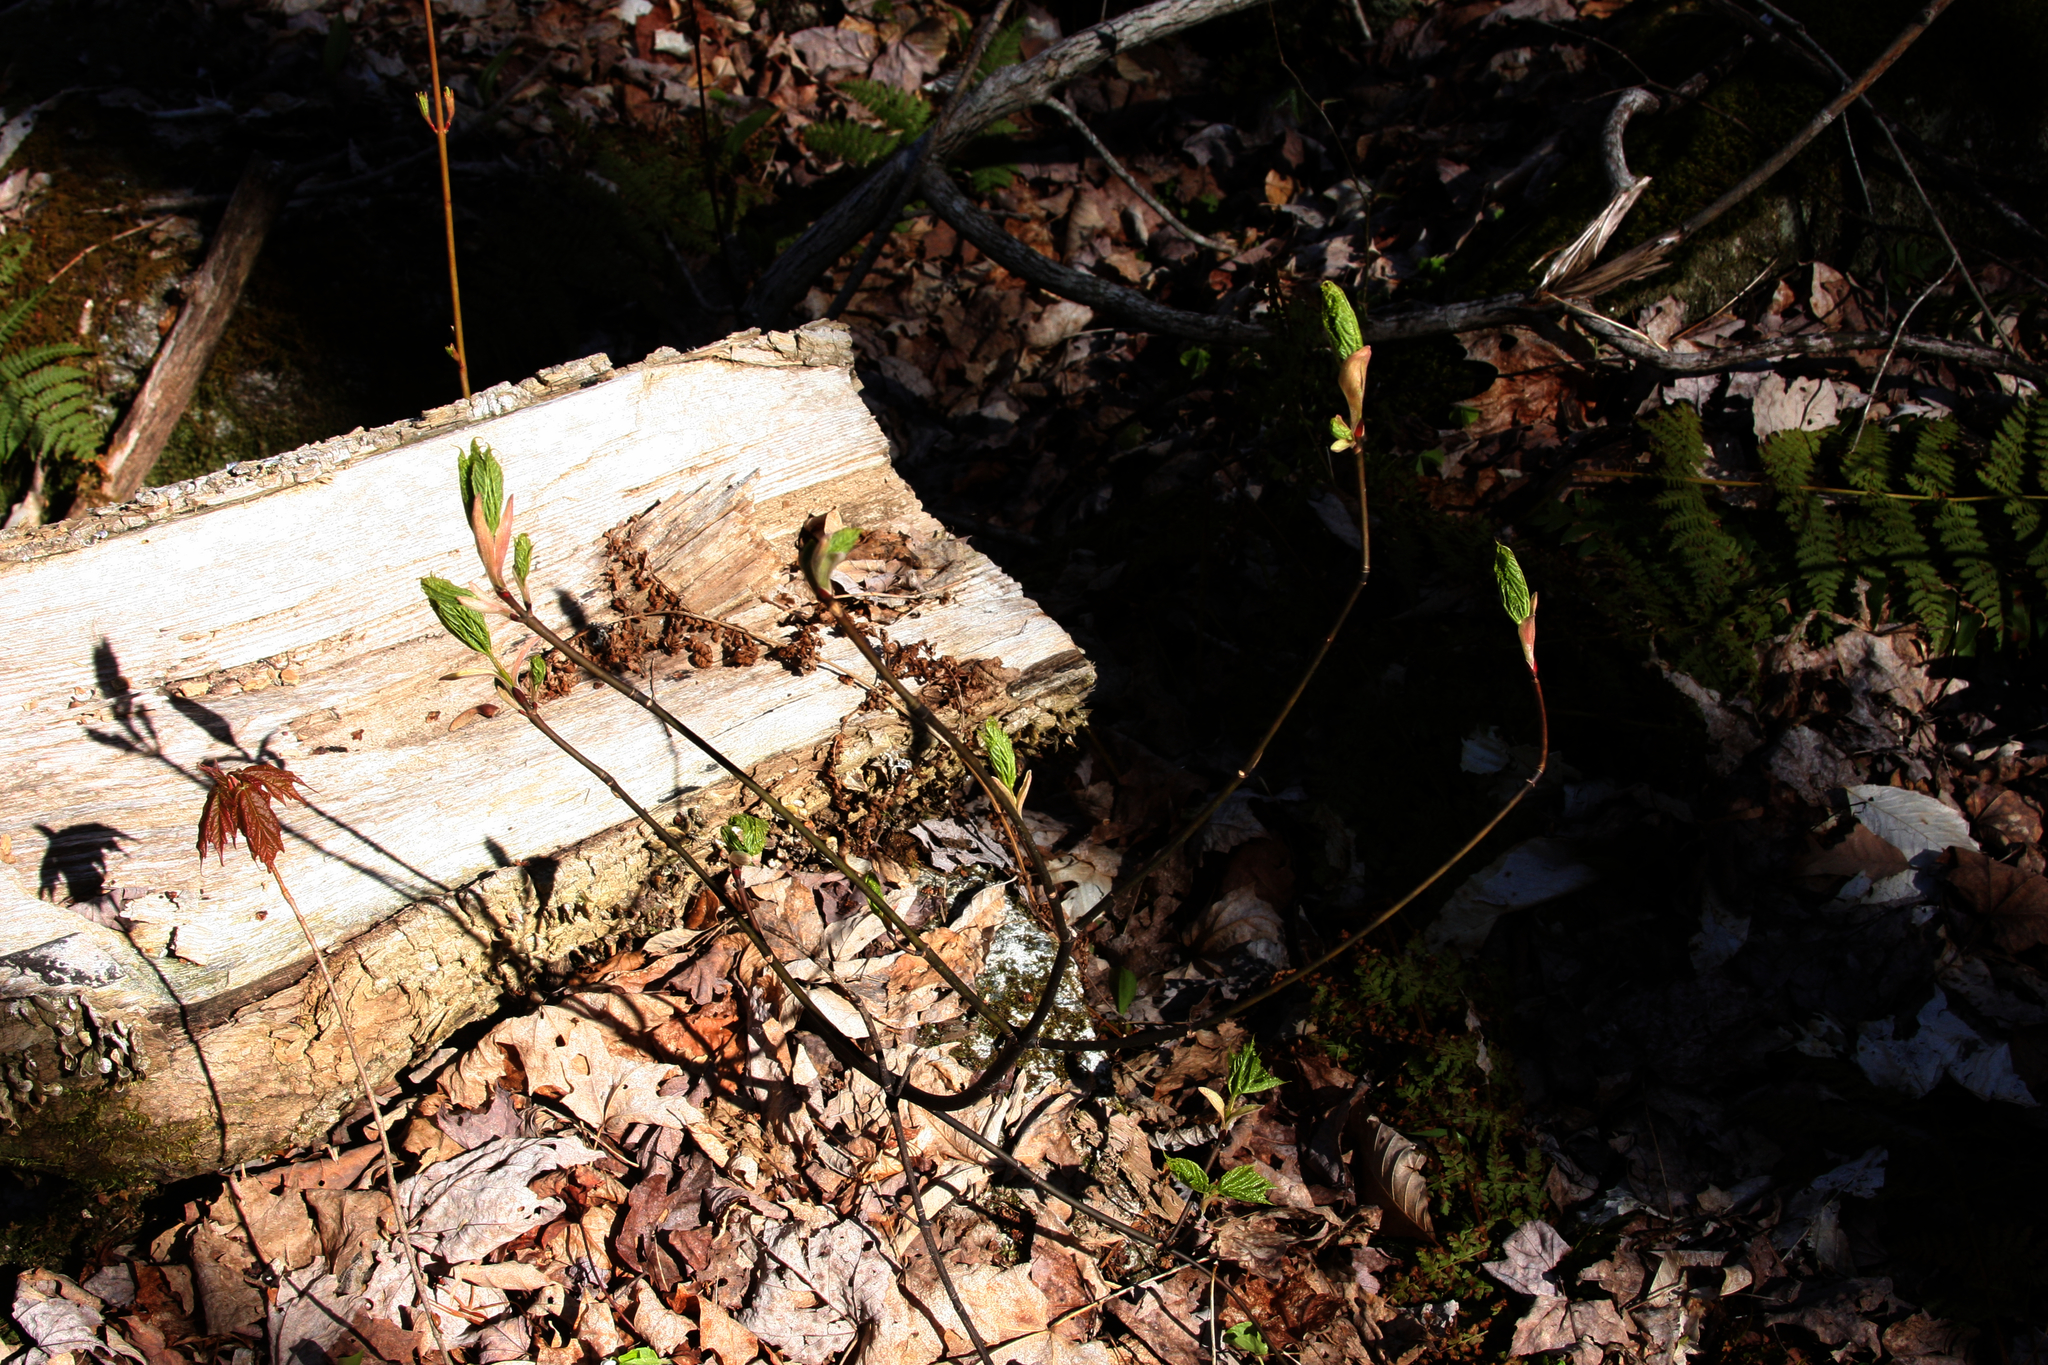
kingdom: Plantae
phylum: Tracheophyta
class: Magnoliopsida
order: Sapindales
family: Sapindaceae
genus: Acer
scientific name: Acer pensylvanicum
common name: Moosewood
